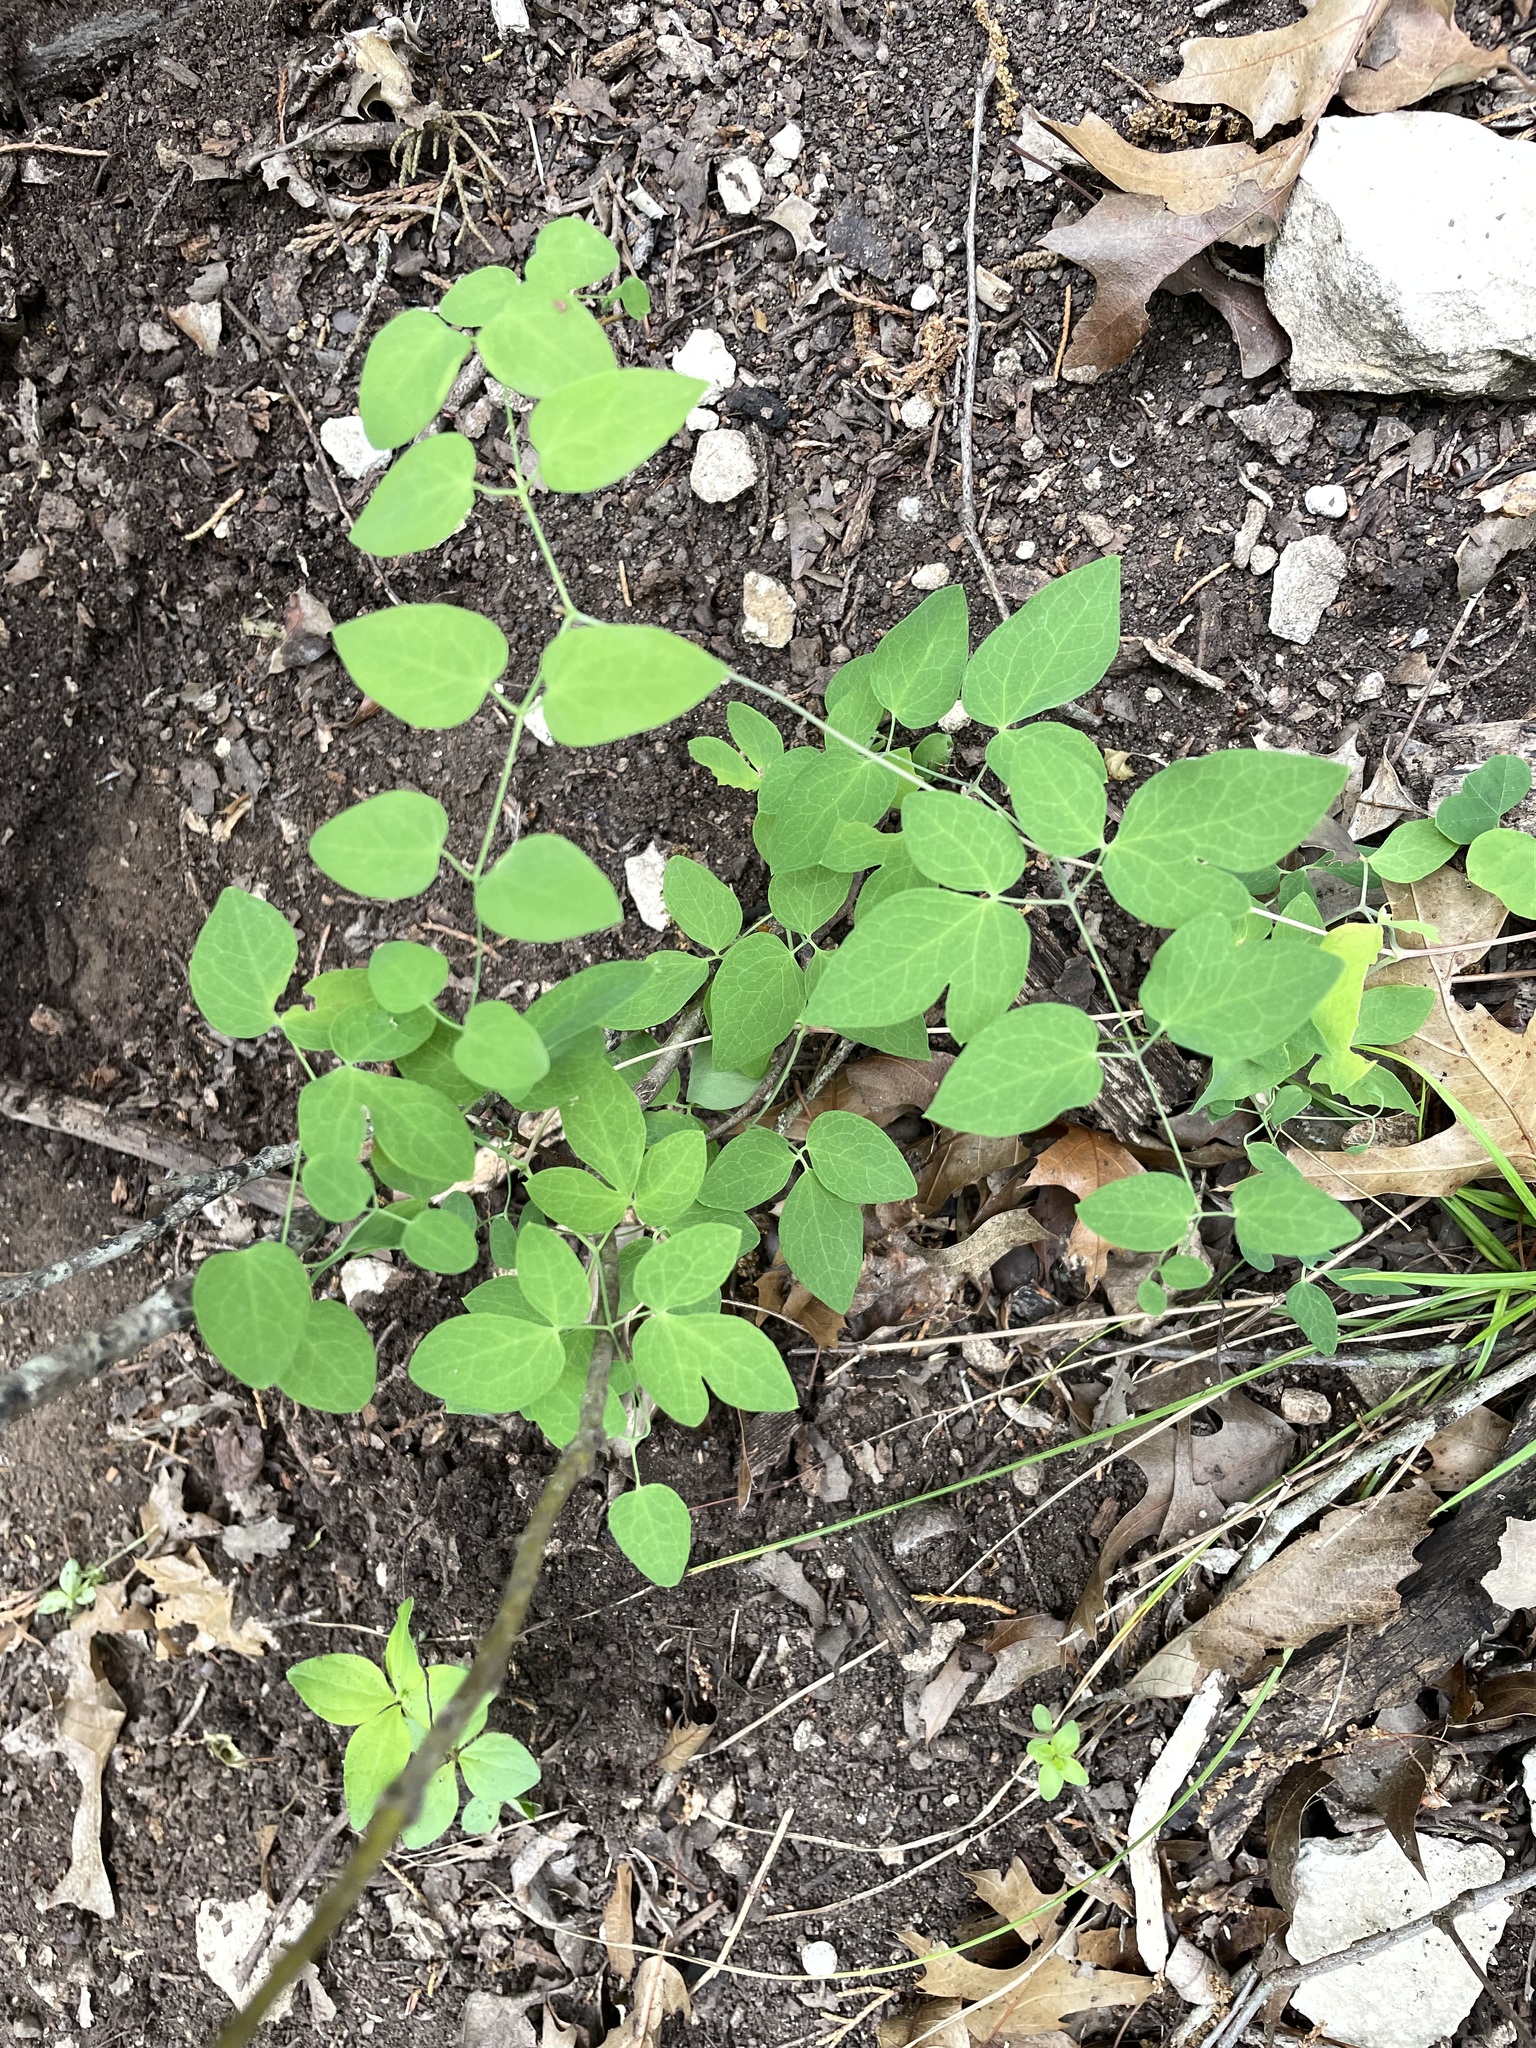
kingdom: Plantae
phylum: Tracheophyta
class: Magnoliopsida
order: Ranunculales
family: Ranunculaceae
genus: Clematis
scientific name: Clematis texensis
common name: Crimson clematis
